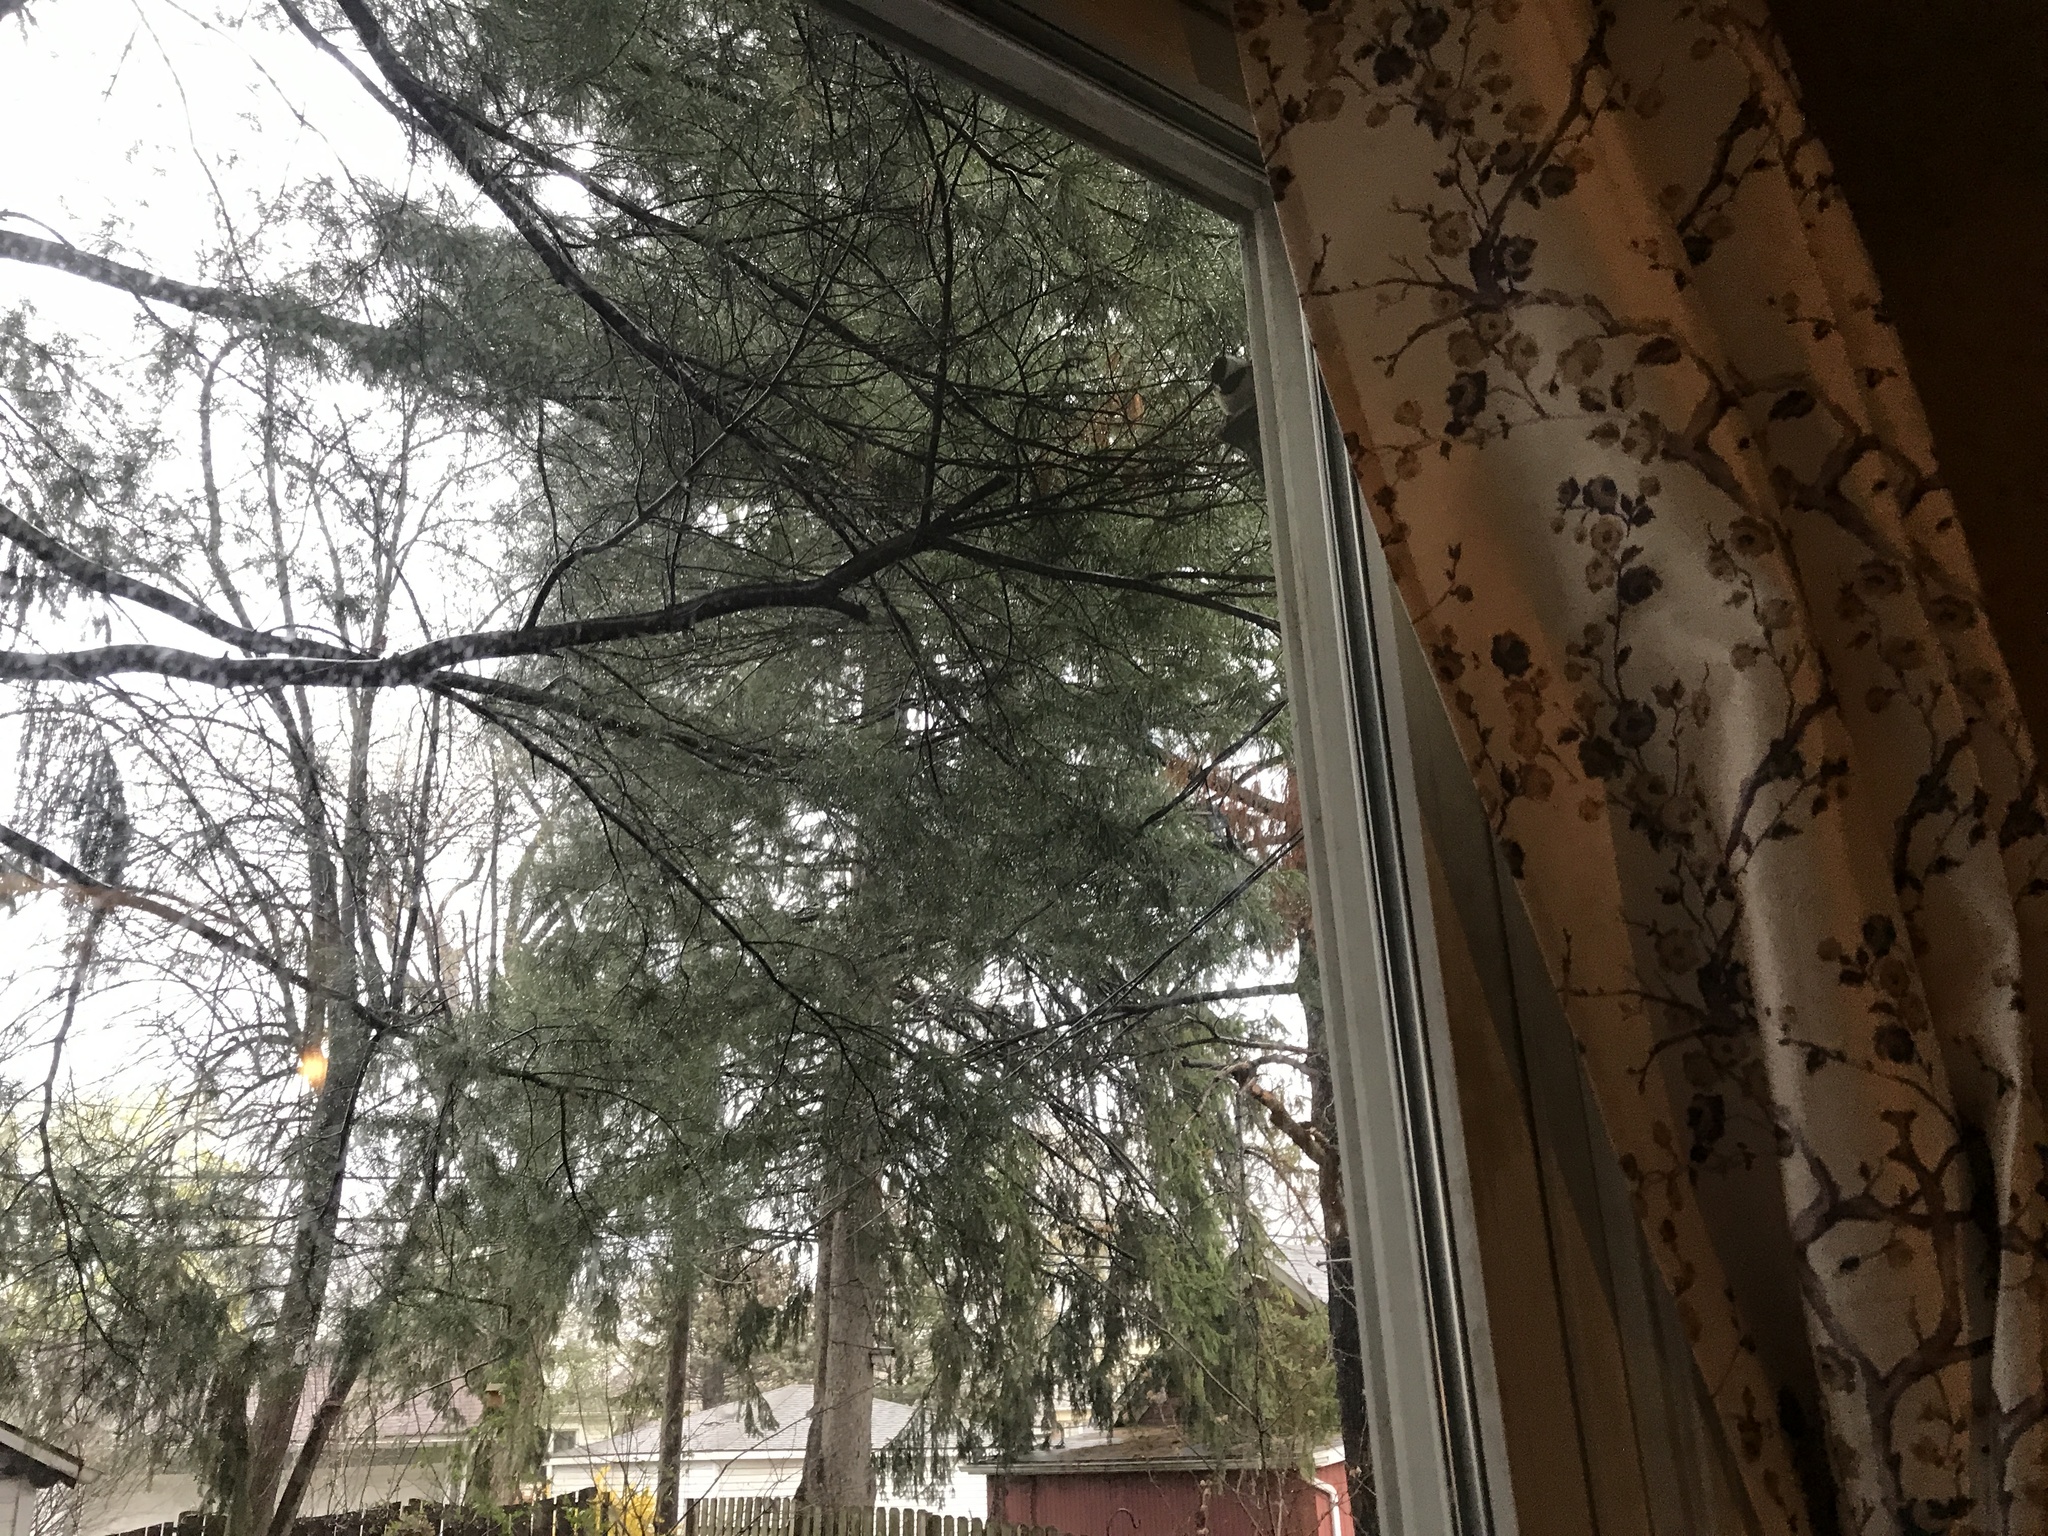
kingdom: Animalia
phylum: Chordata
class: Aves
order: Passeriformes
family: Paridae
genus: Poecile
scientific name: Poecile atricapillus
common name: Black-capped chickadee
